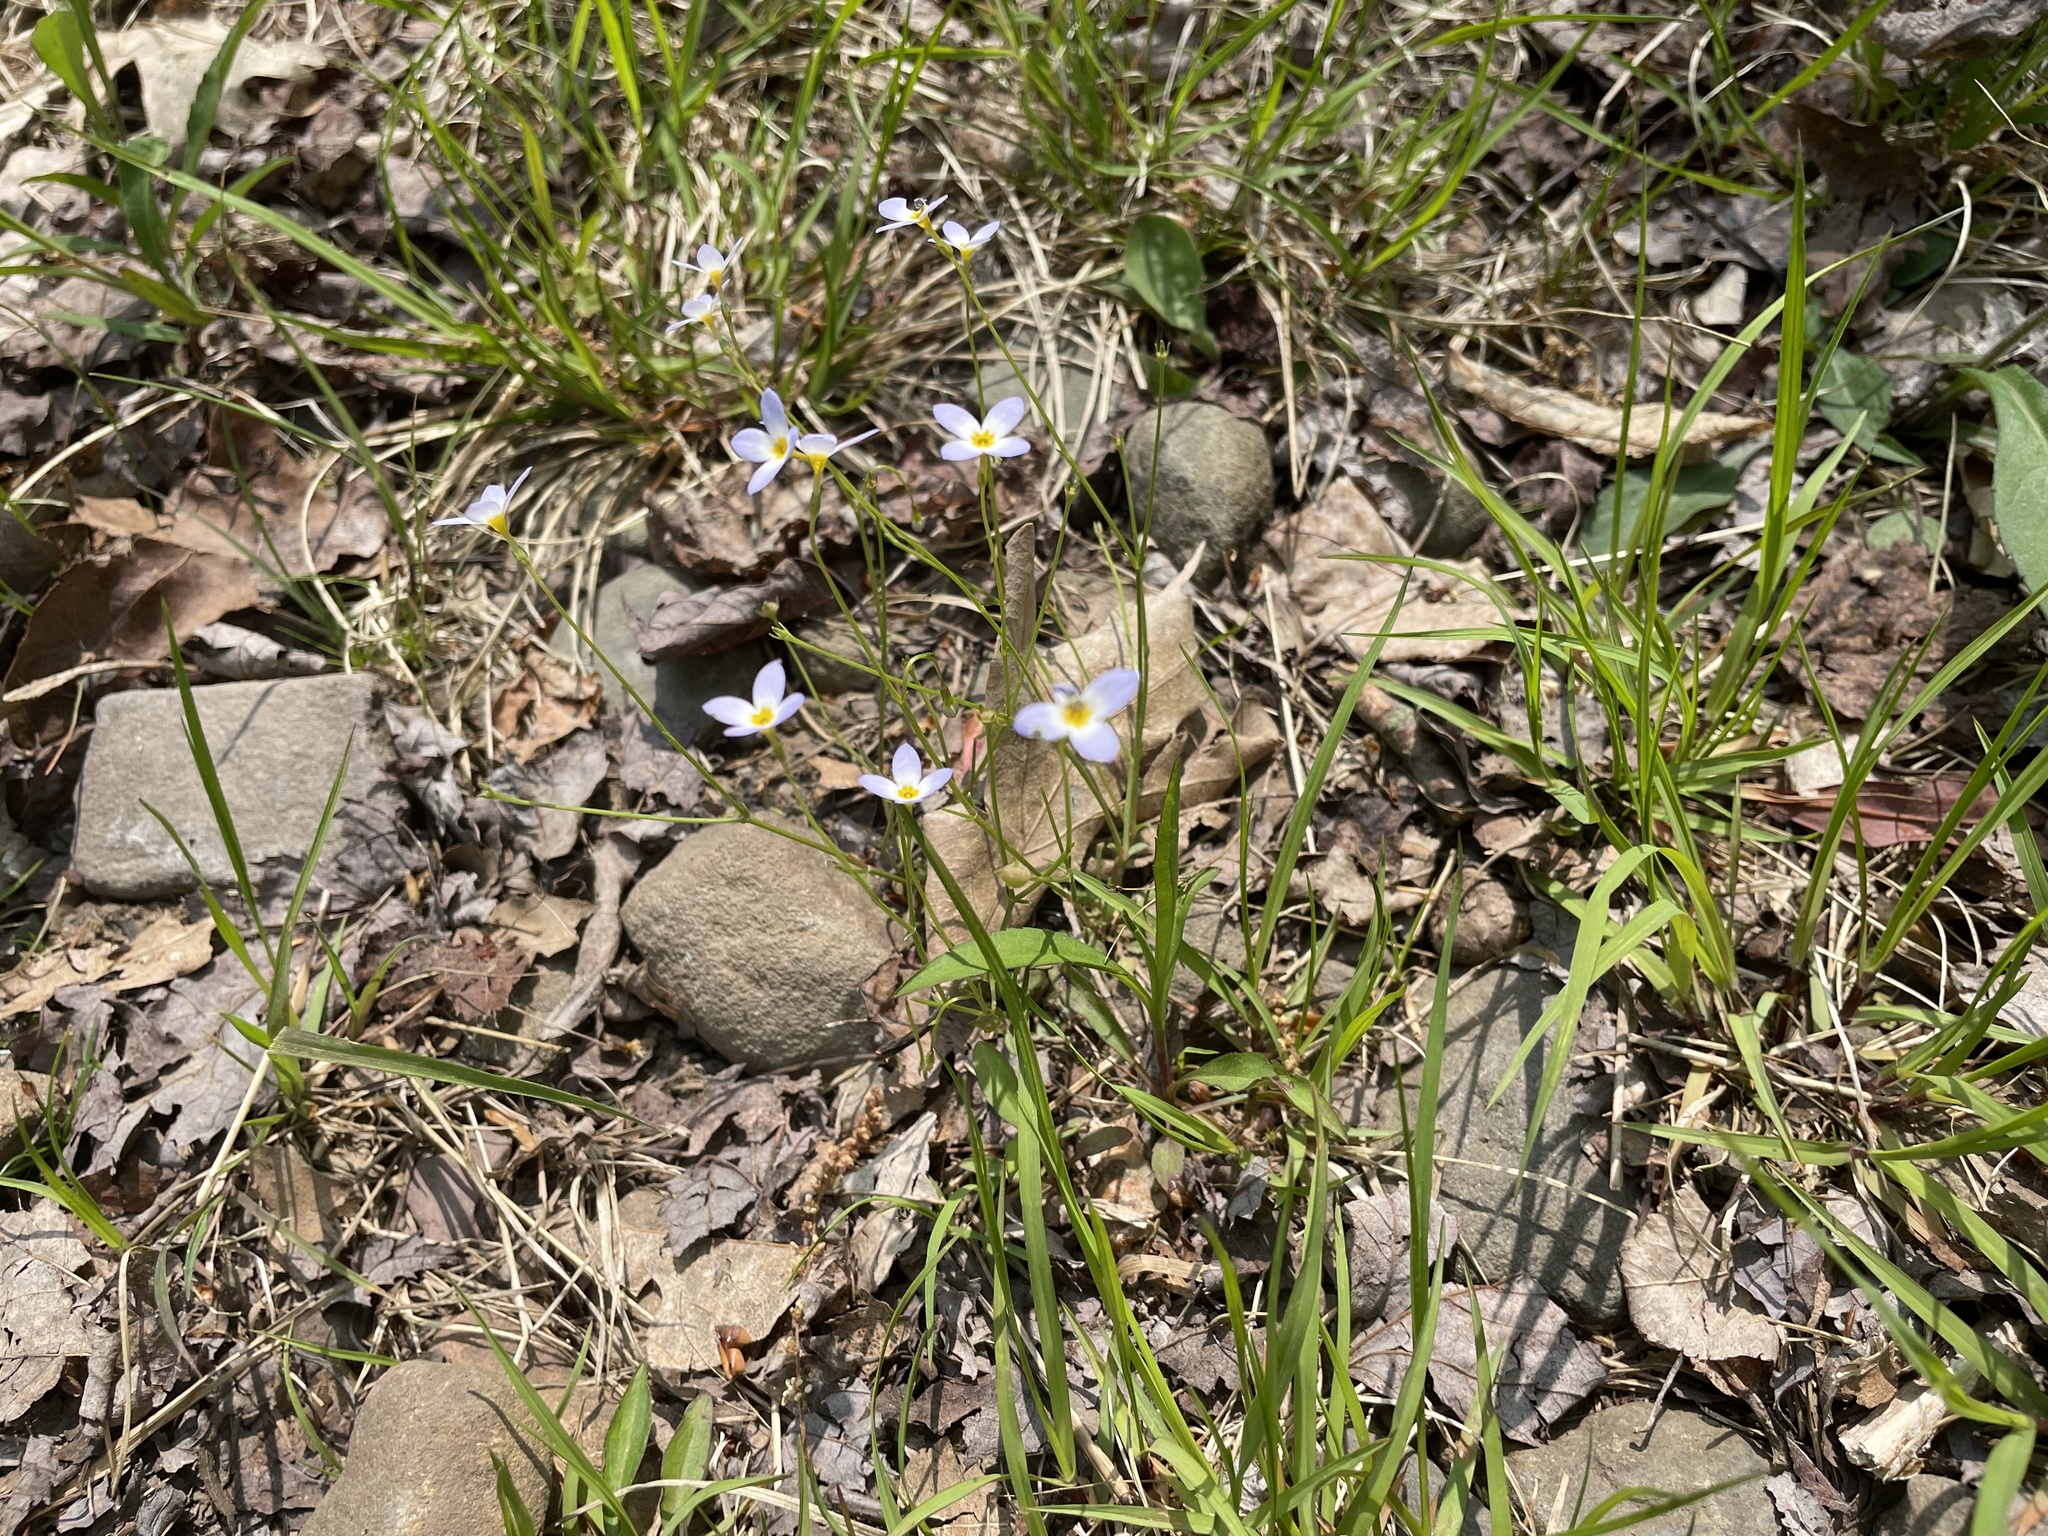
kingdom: Plantae
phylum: Tracheophyta
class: Magnoliopsida
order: Gentianales
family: Rubiaceae
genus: Houstonia
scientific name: Houstonia caerulea
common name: Bluets
